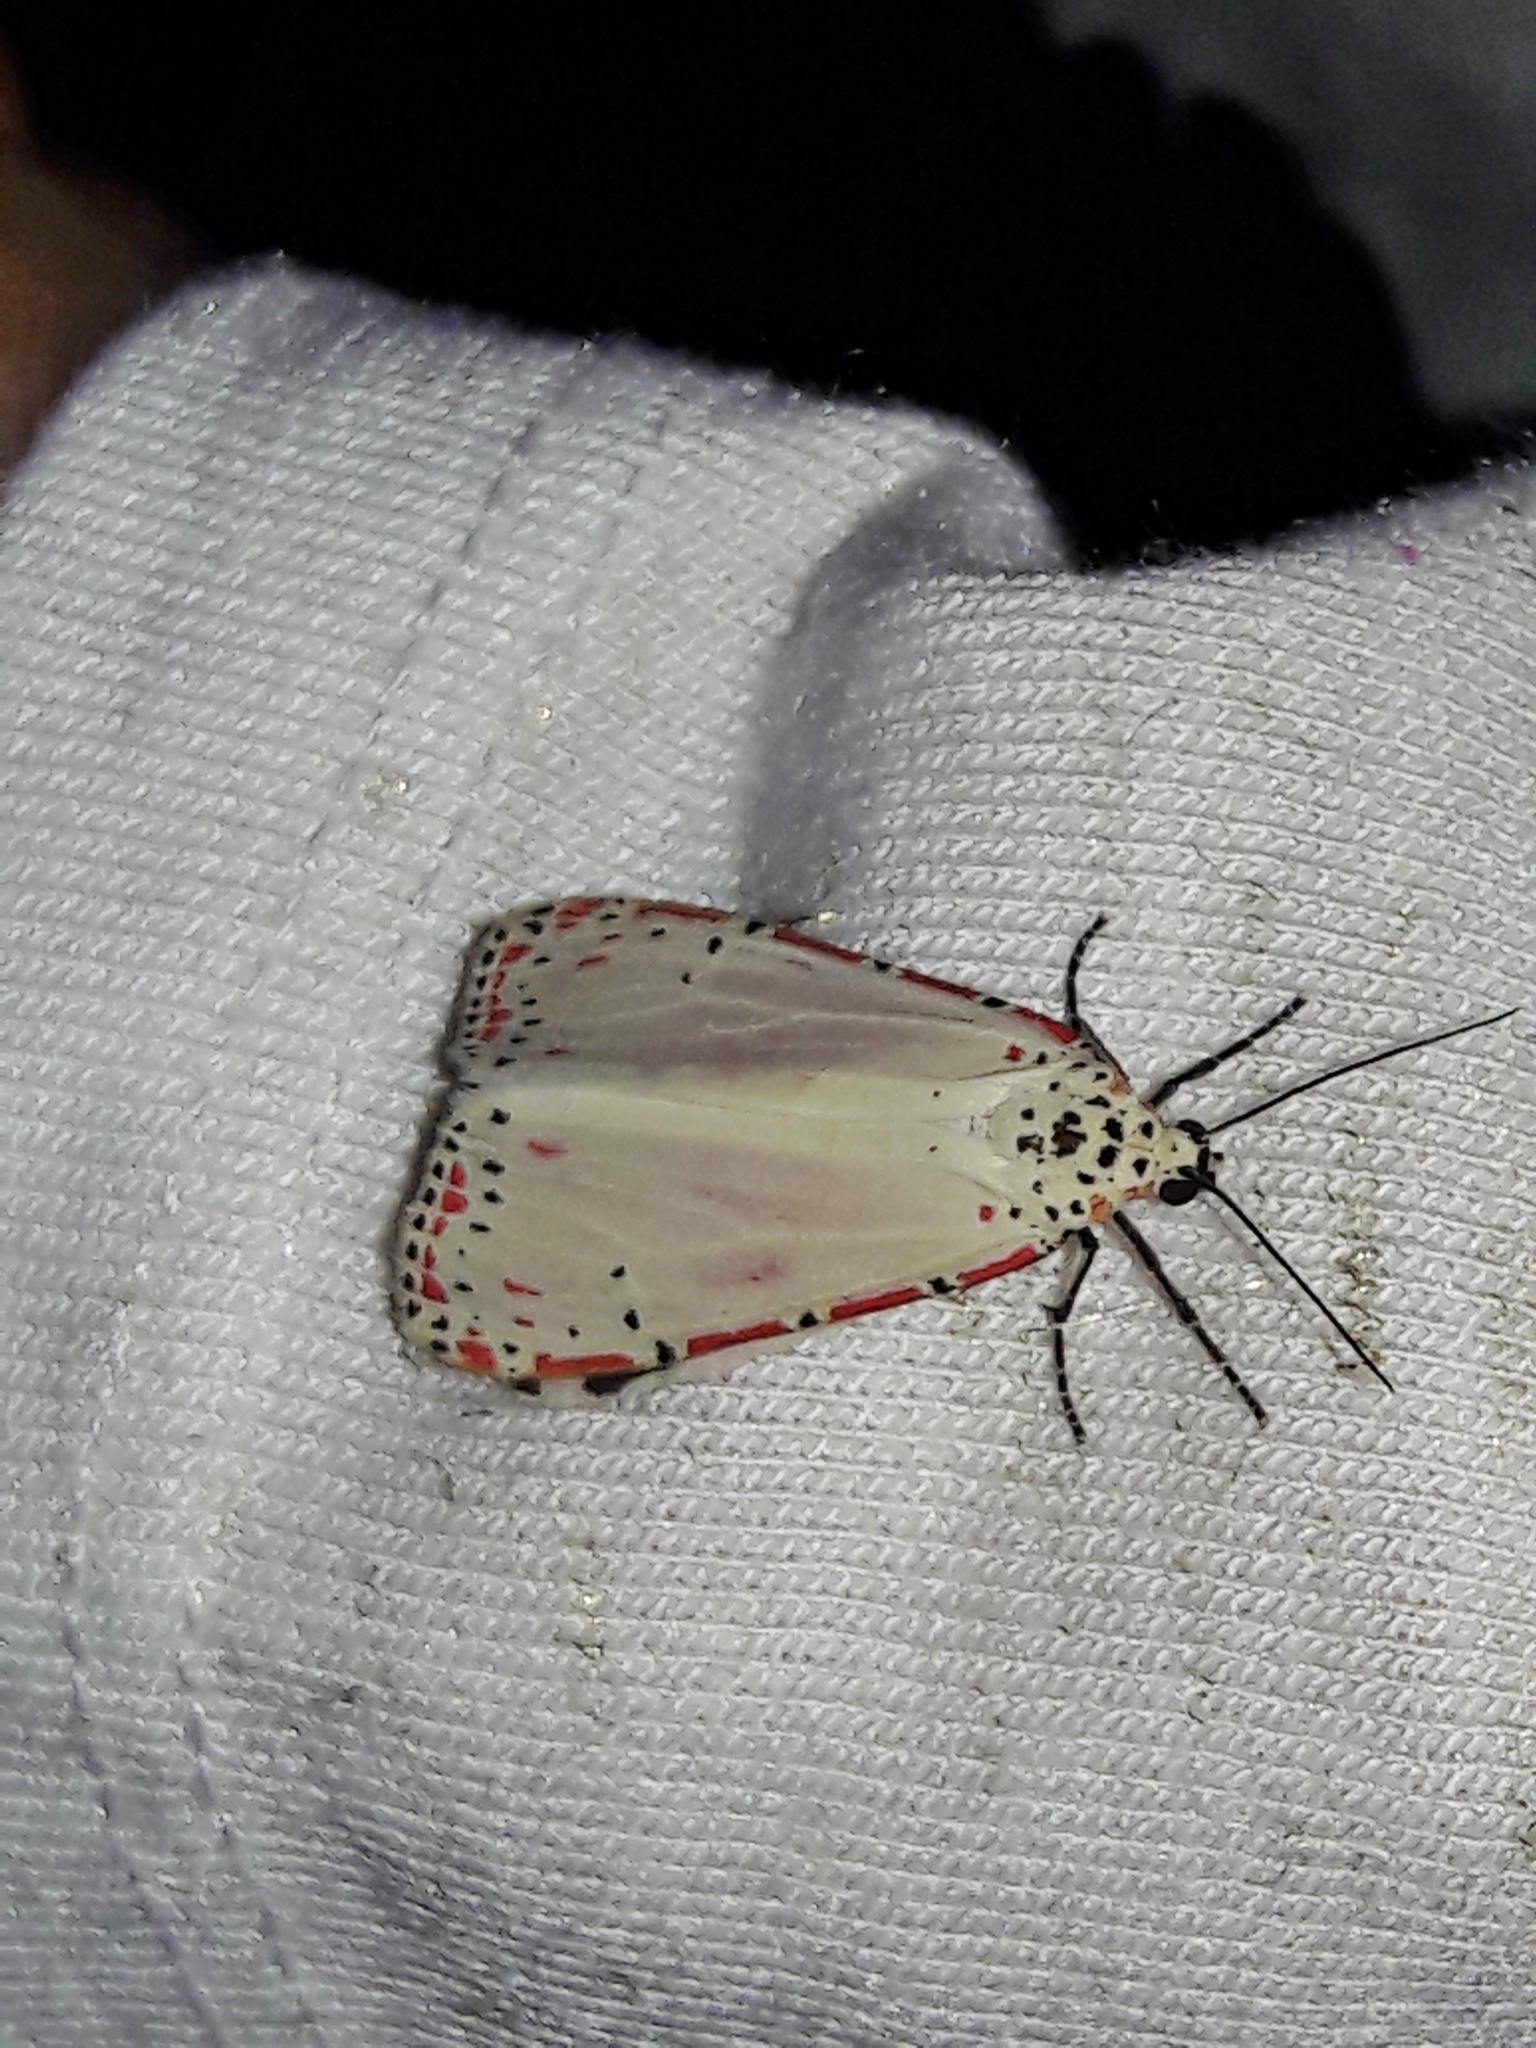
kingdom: Animalia
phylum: Arthropoda
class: Insecta
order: Lepidoptera
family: Erebidae
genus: Utetheisa
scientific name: Utetheisa ornatrix
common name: Beautiful utetheisa
